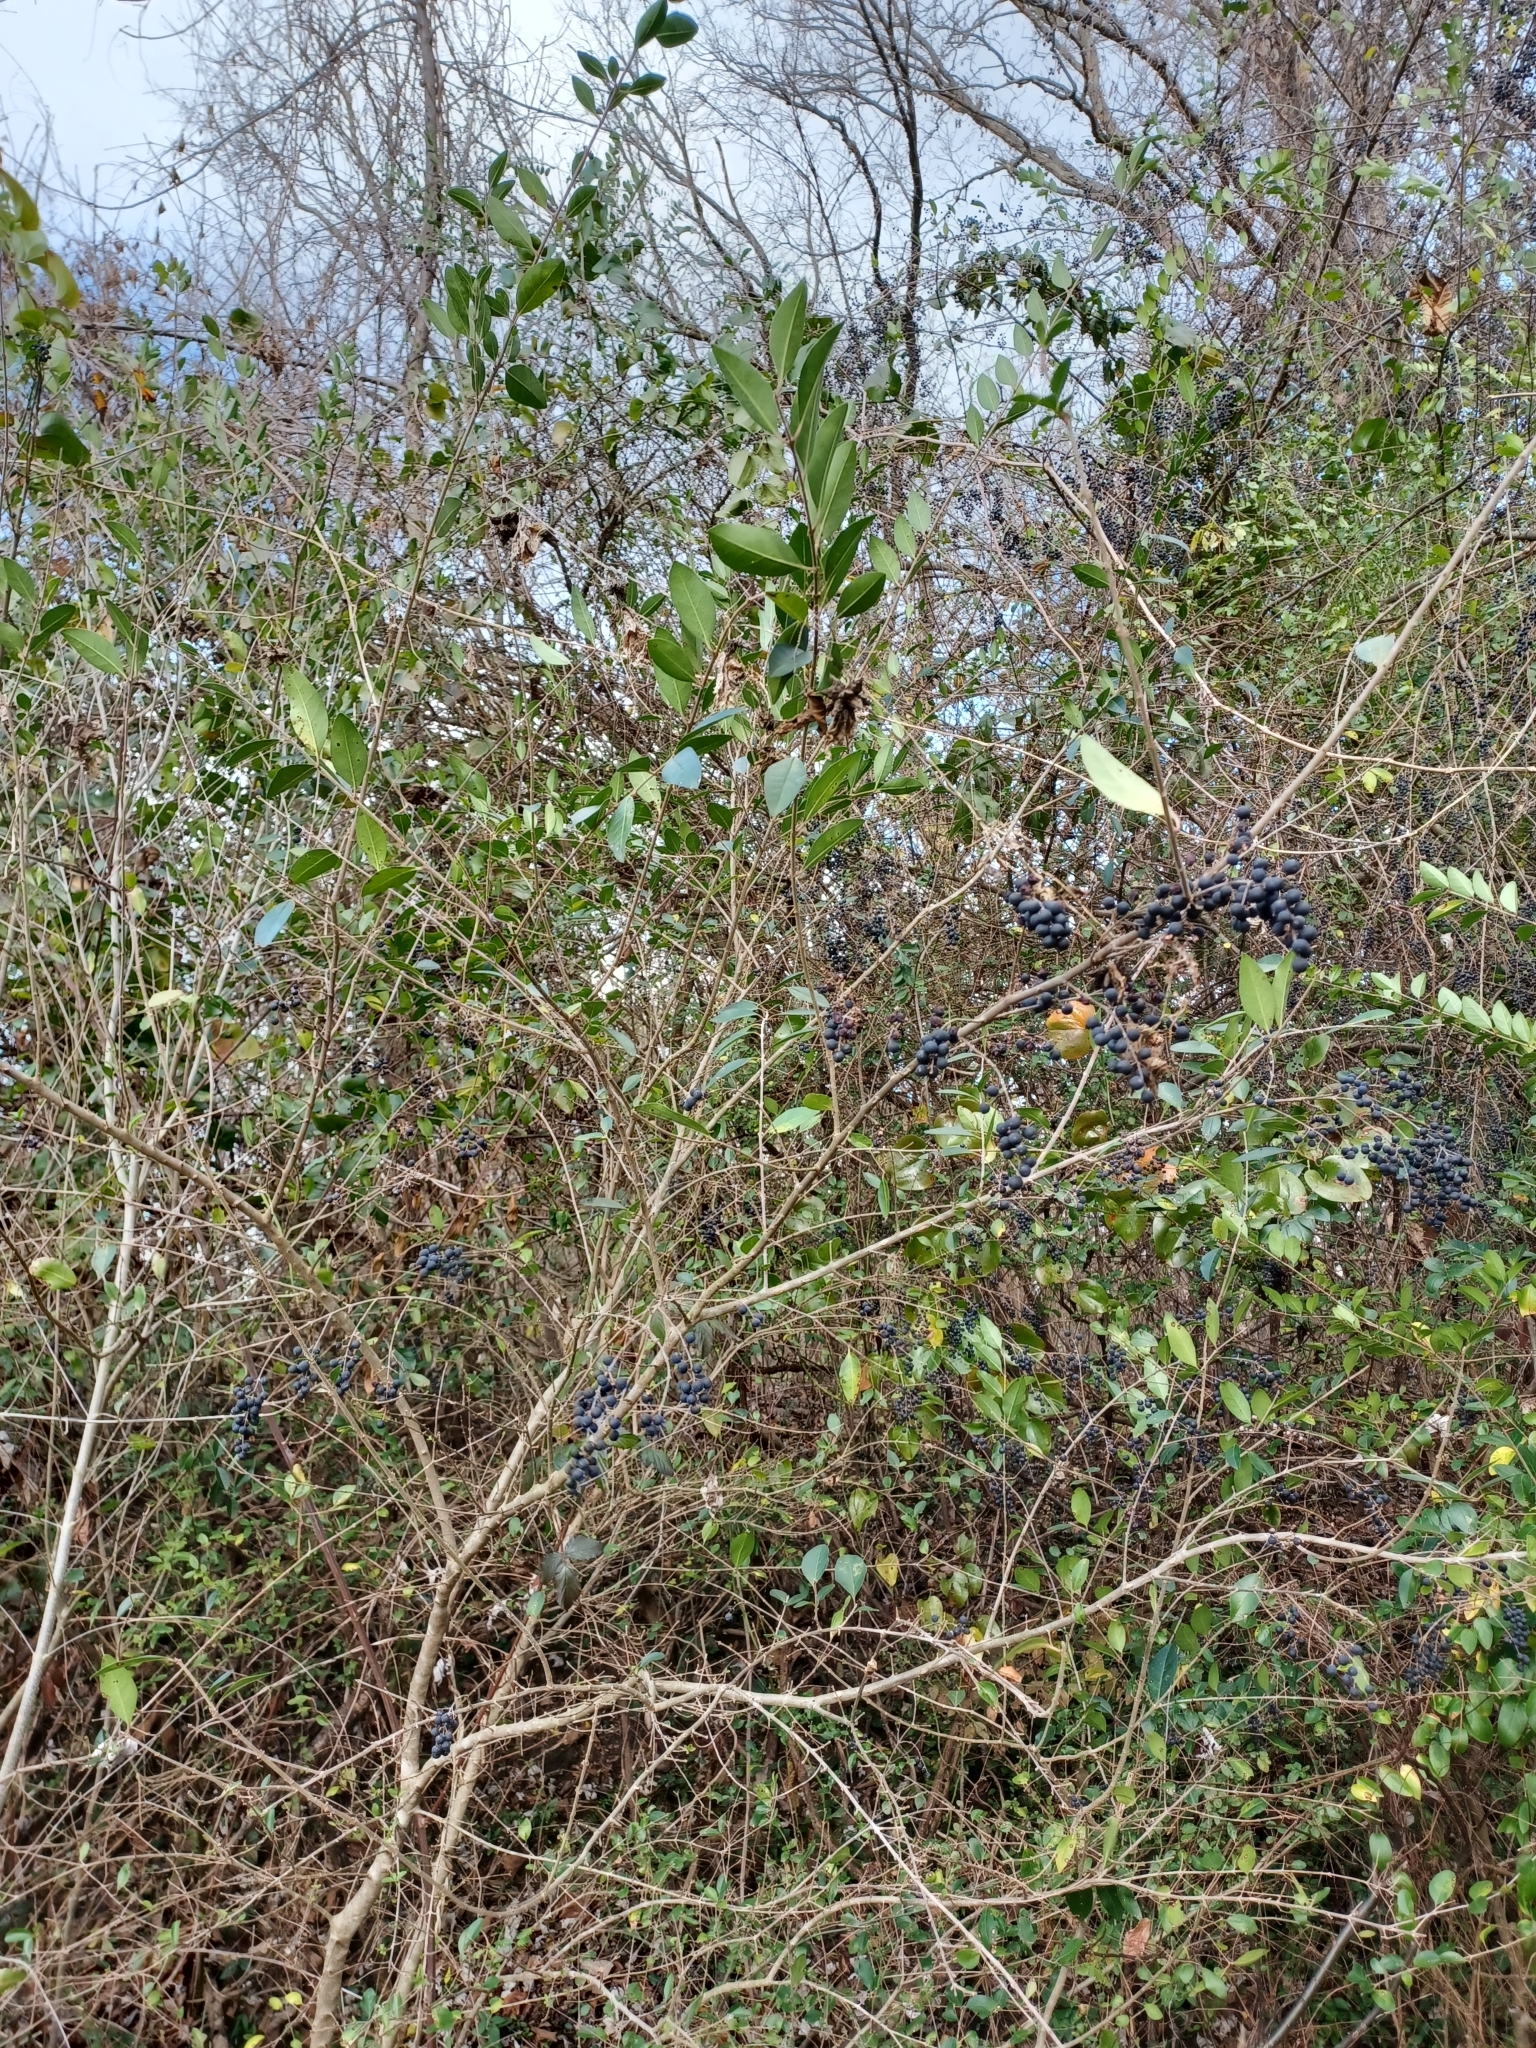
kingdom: Plantae
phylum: Tracheophyta
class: Magnoliopsida
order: Lamiales
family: Oleaceae
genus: Ligustrum
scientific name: Ligustrum sinense
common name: Chinese privet
